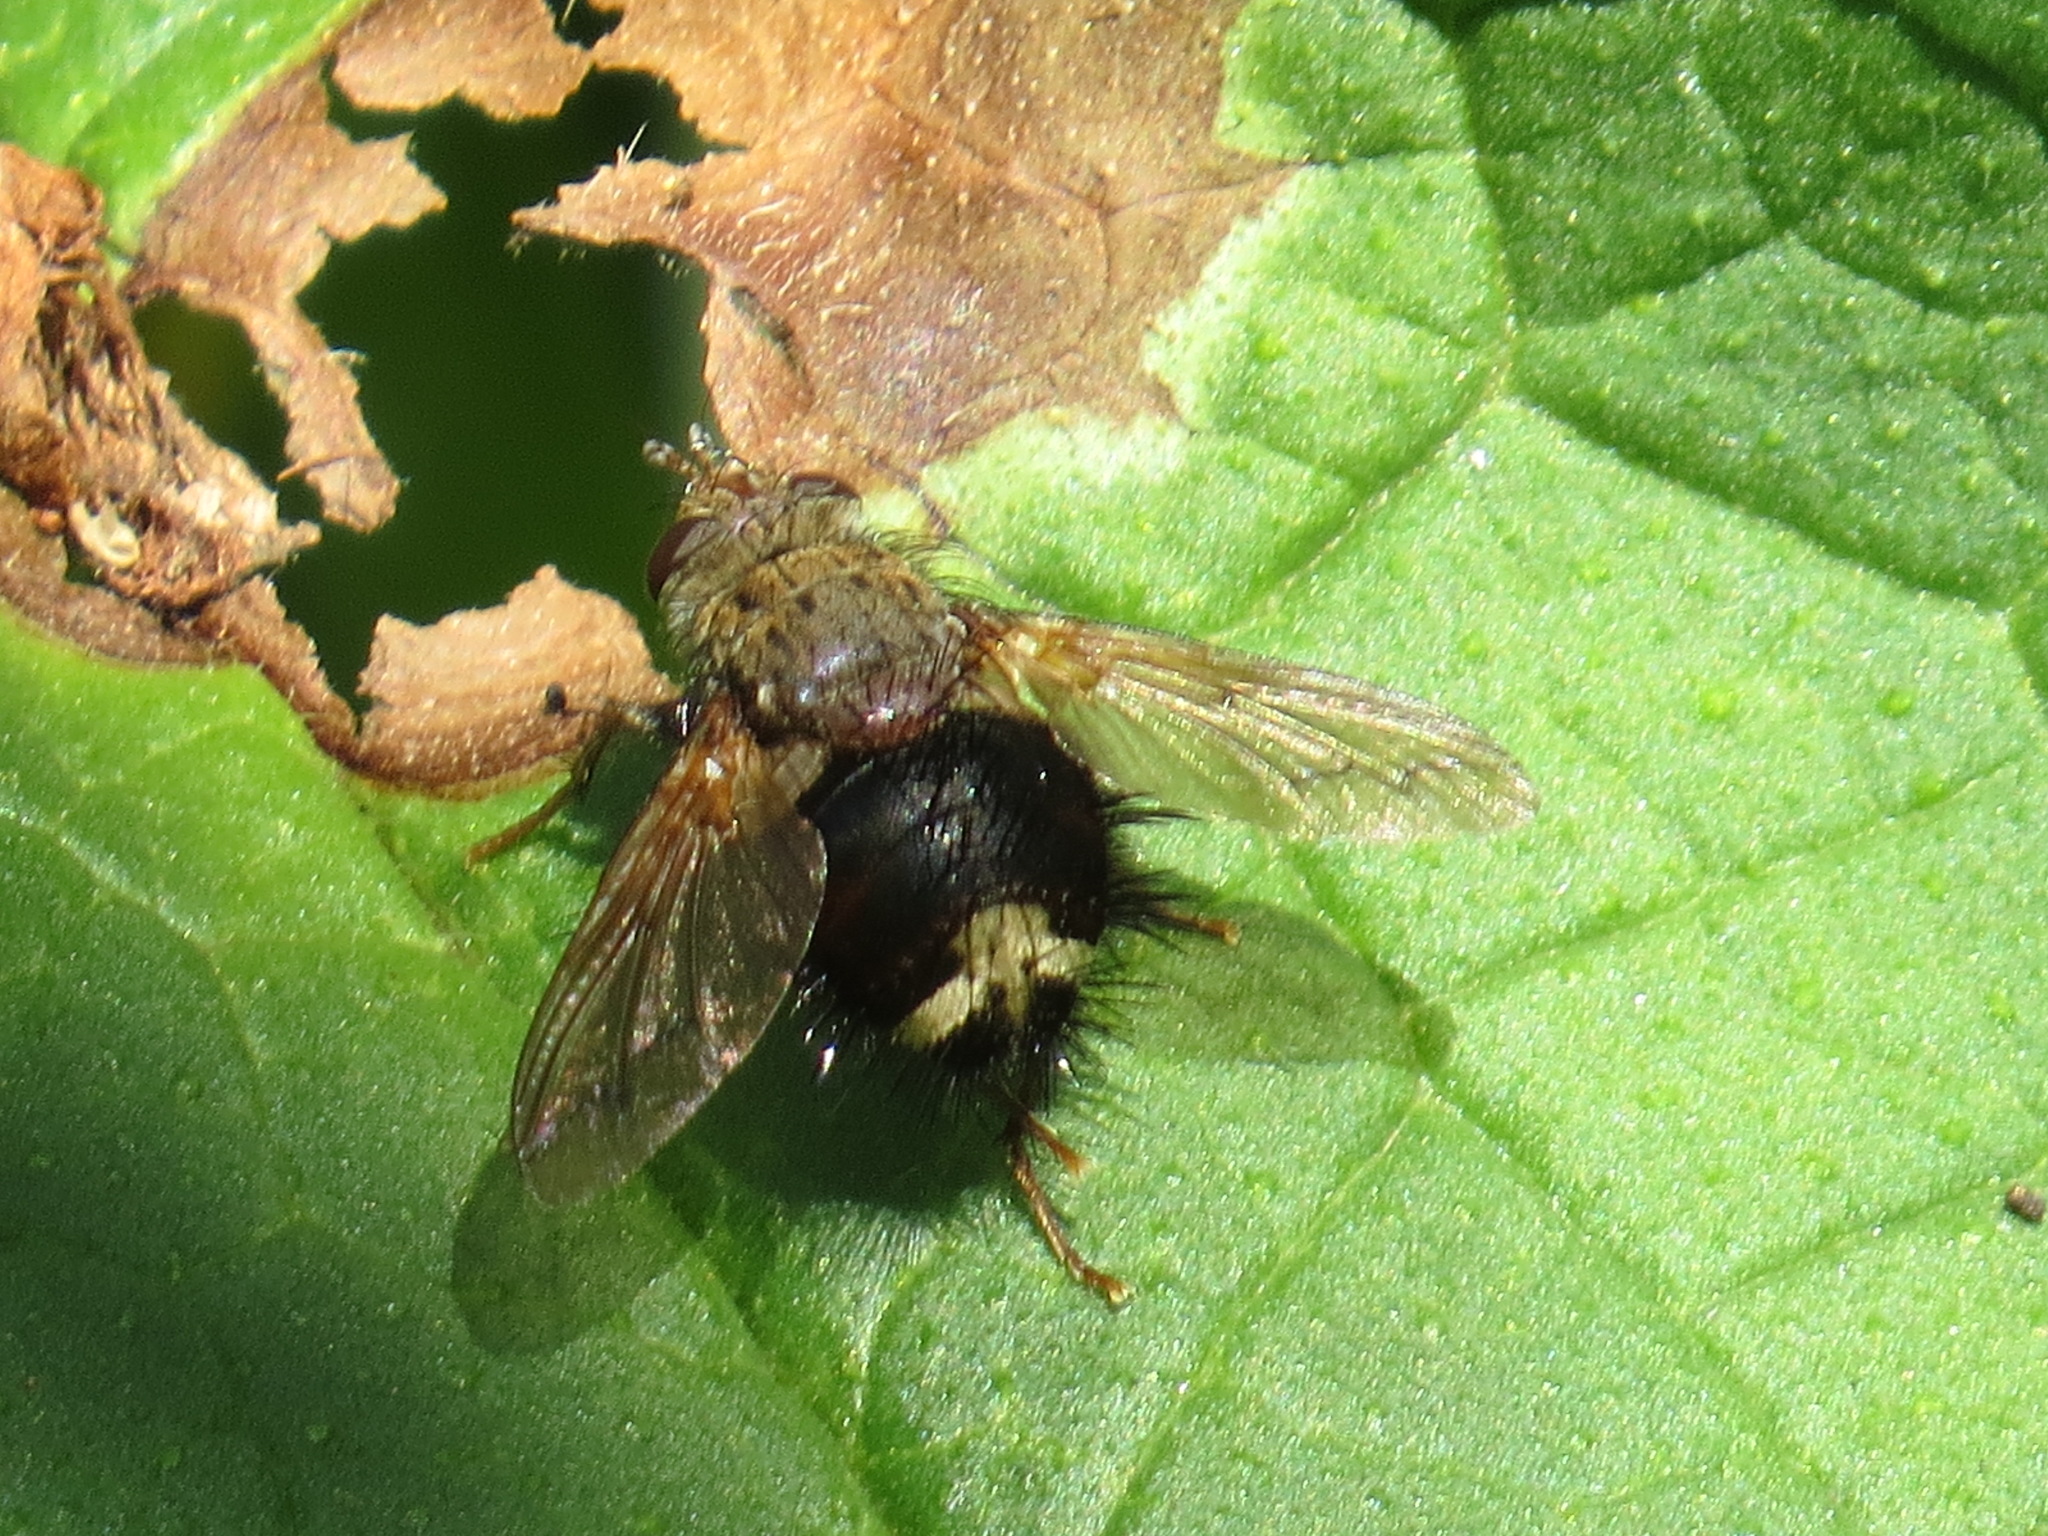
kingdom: Animalia
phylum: Arthropoda
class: Insecta
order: Diptera
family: Tachinidae
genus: Epalpus
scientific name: Epalpus signifer
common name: Early tachinid fly
